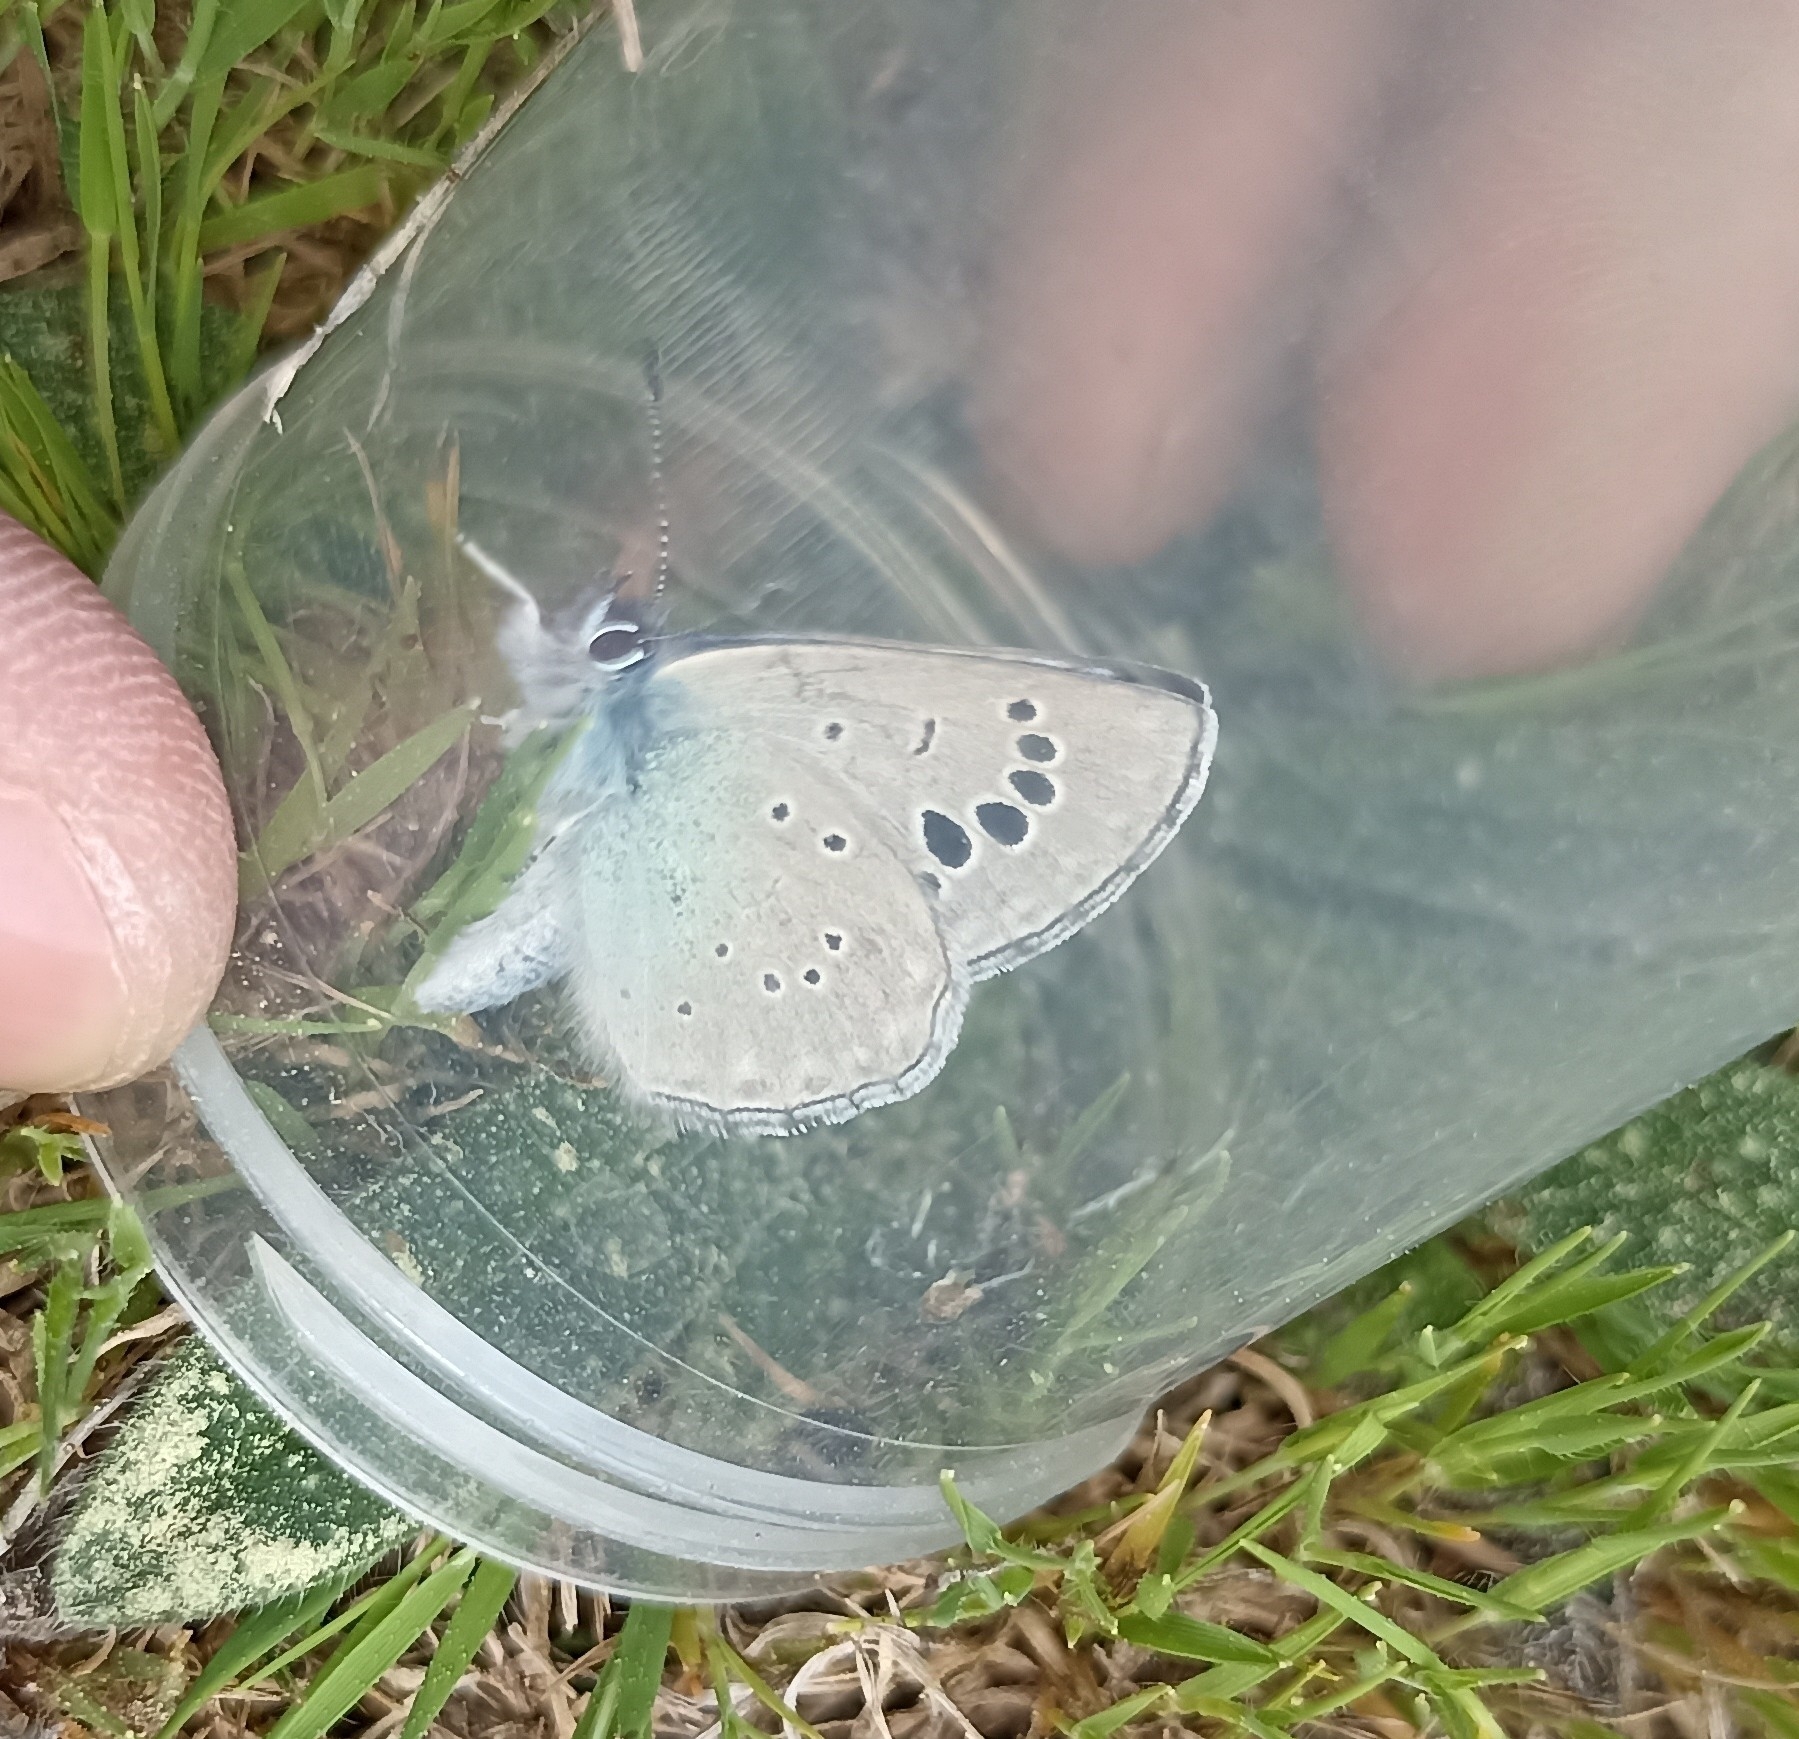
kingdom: Animalia
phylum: Arthropoda
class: Insecta
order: Lepidoptera
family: Lycaenidae
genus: Glaucopsyche
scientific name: Glaucopsyche melanops
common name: Black-eyed blue
